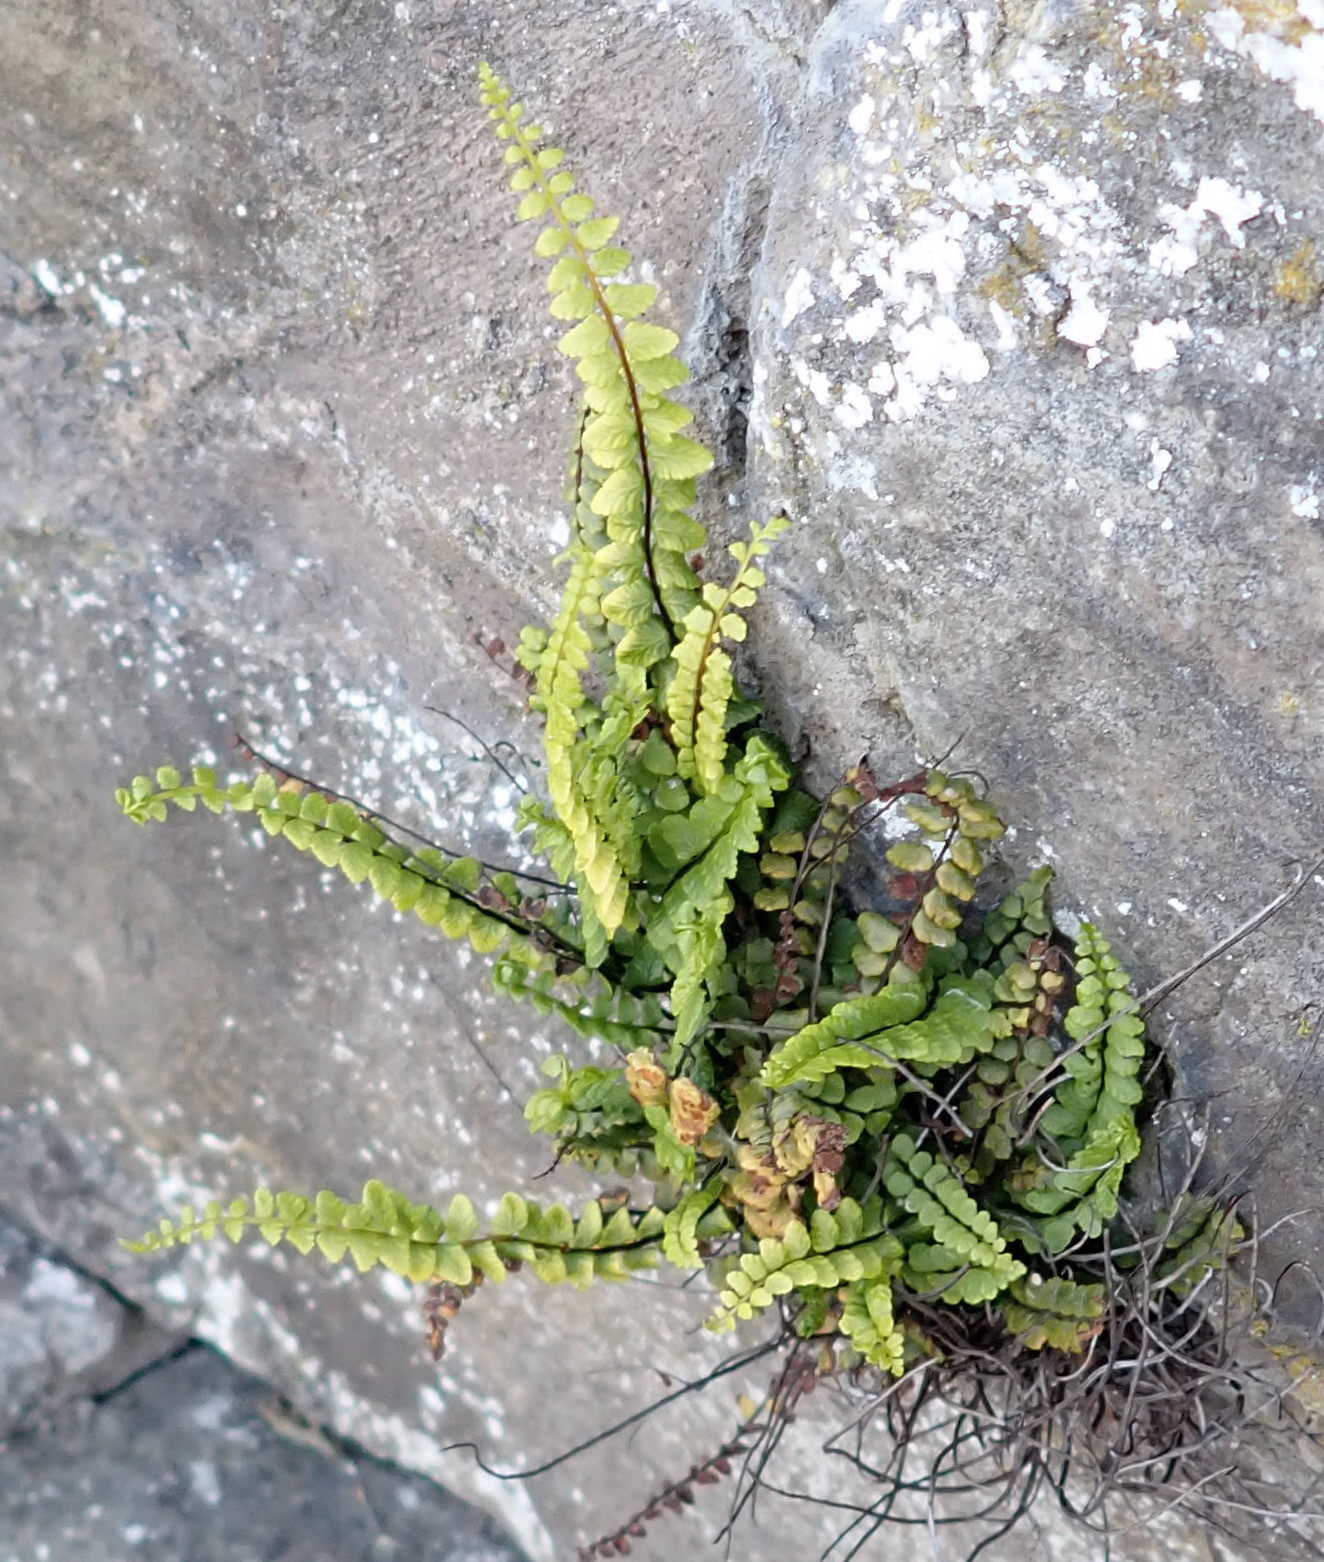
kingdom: Plantae
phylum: Tracheophyta
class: Polypodiopsida
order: Polypodiales
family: Aspleniaceae
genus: Asplenium
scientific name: Asplenium trichomanes
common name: Maidenhair spleenwort
